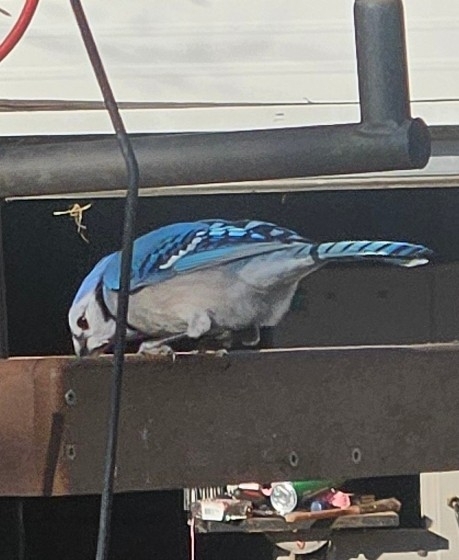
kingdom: Animalia
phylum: Chordata
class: Aves
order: Passeriformes
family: Corvidae
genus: Cyanocitta
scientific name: Cyanocitta cristata
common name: Blue jay
